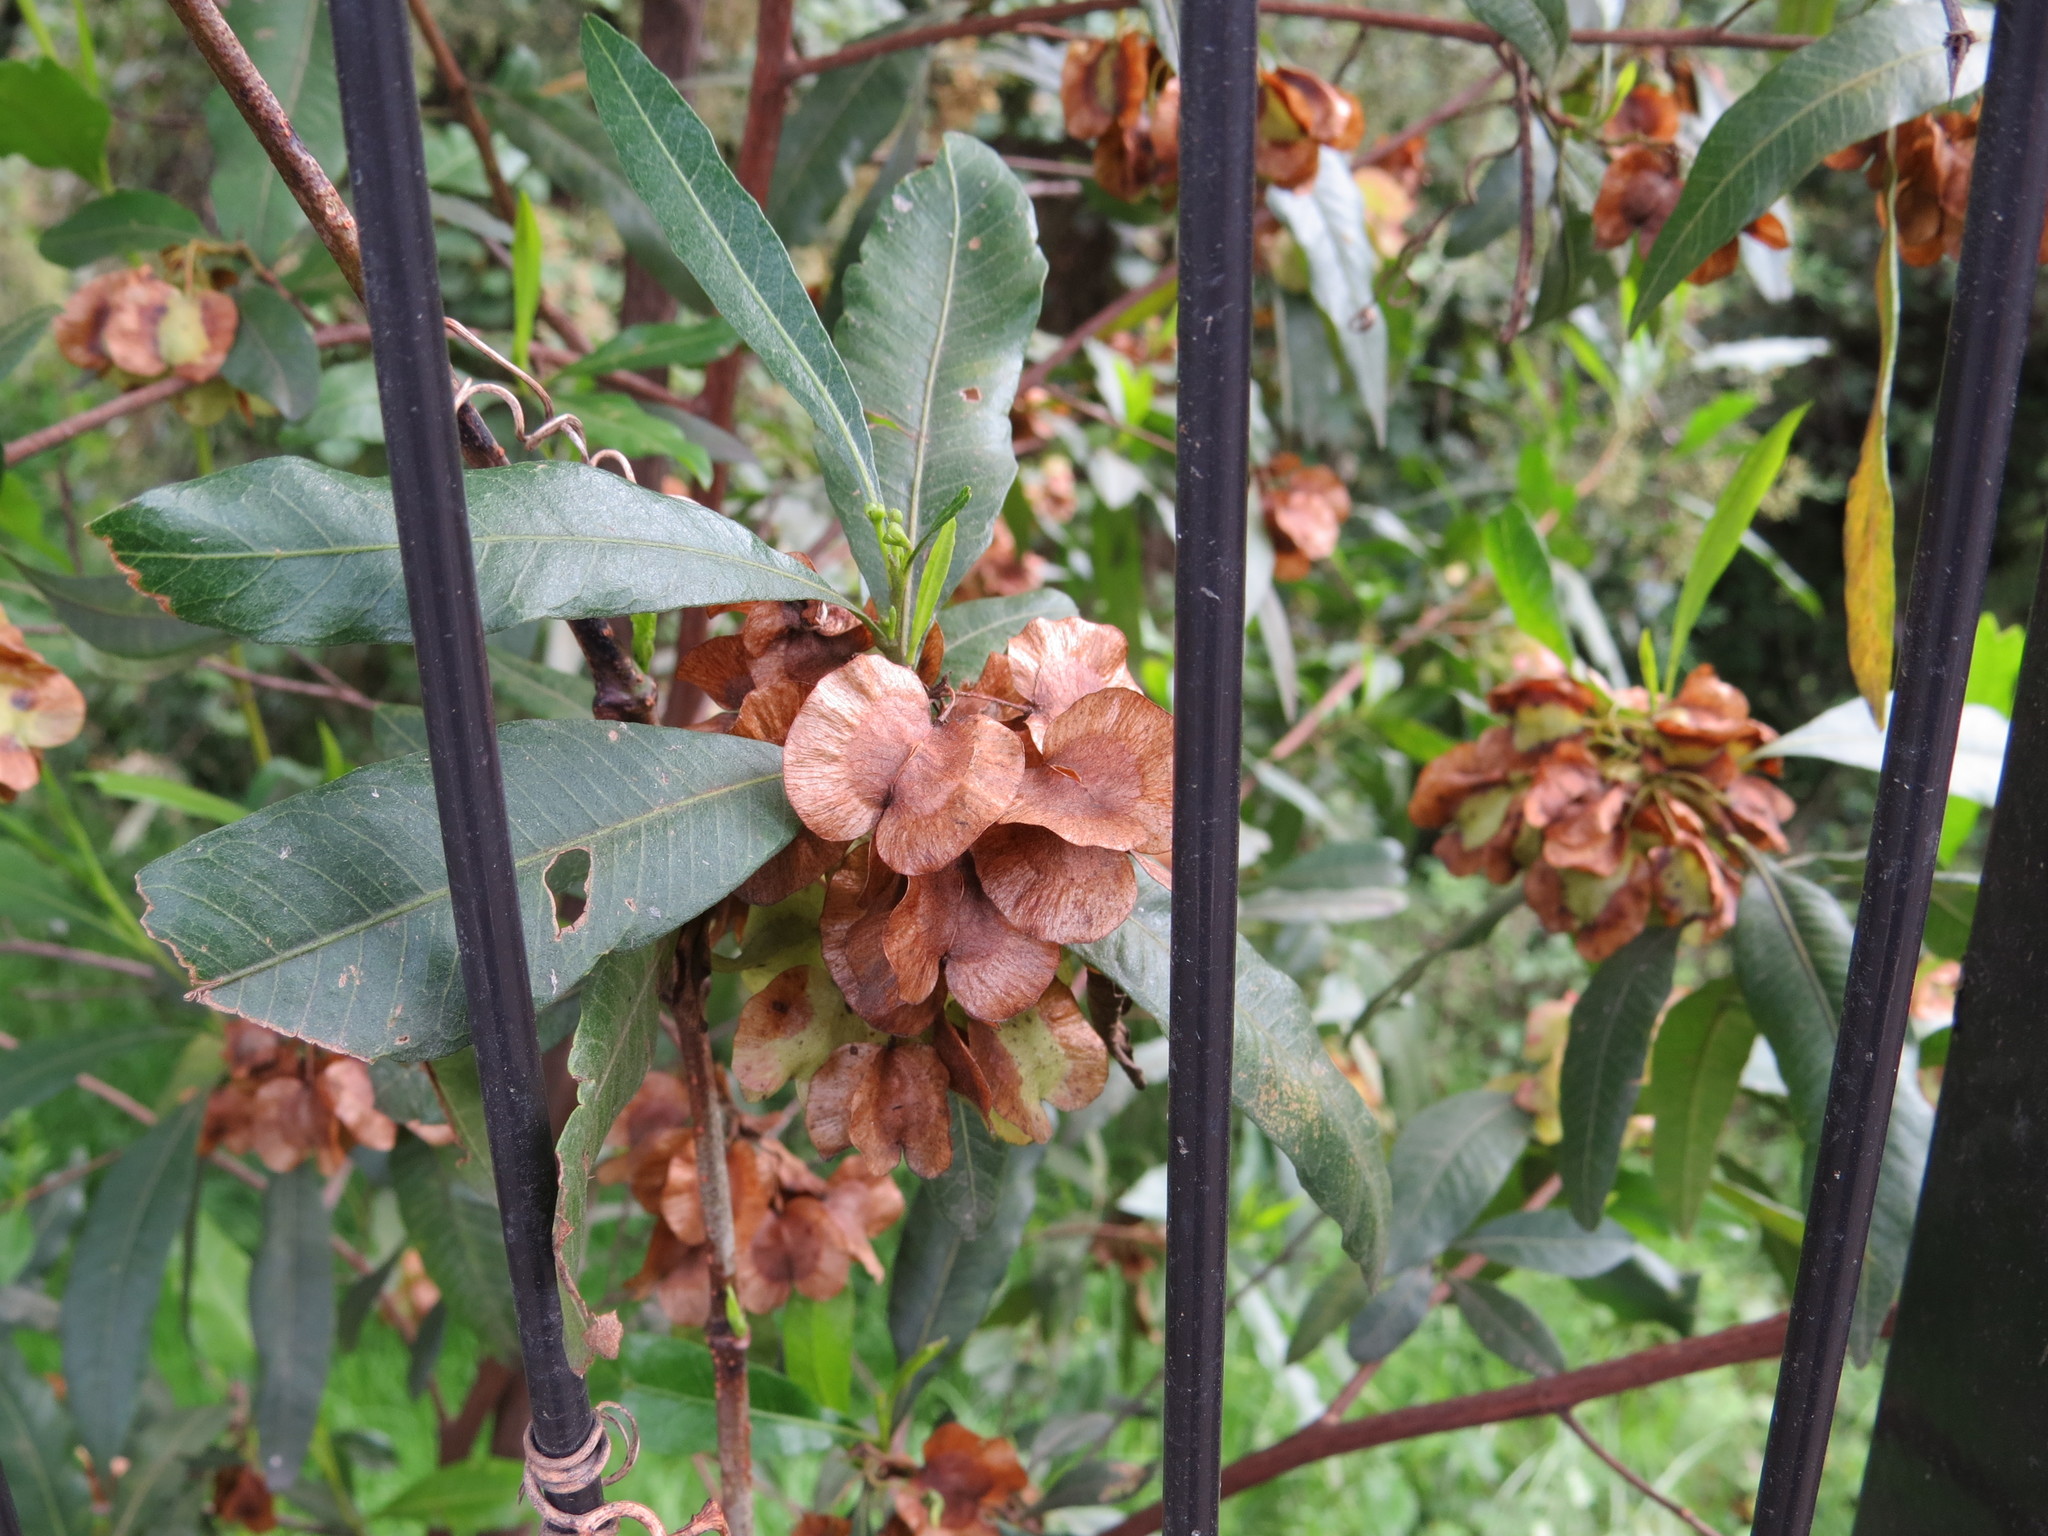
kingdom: Plantae
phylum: Tracheophyta
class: Magnoliopsida
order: Sapindales
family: Sapindaceae
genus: Dodonaea
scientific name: Dodonaea viscosa
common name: Hopbush
